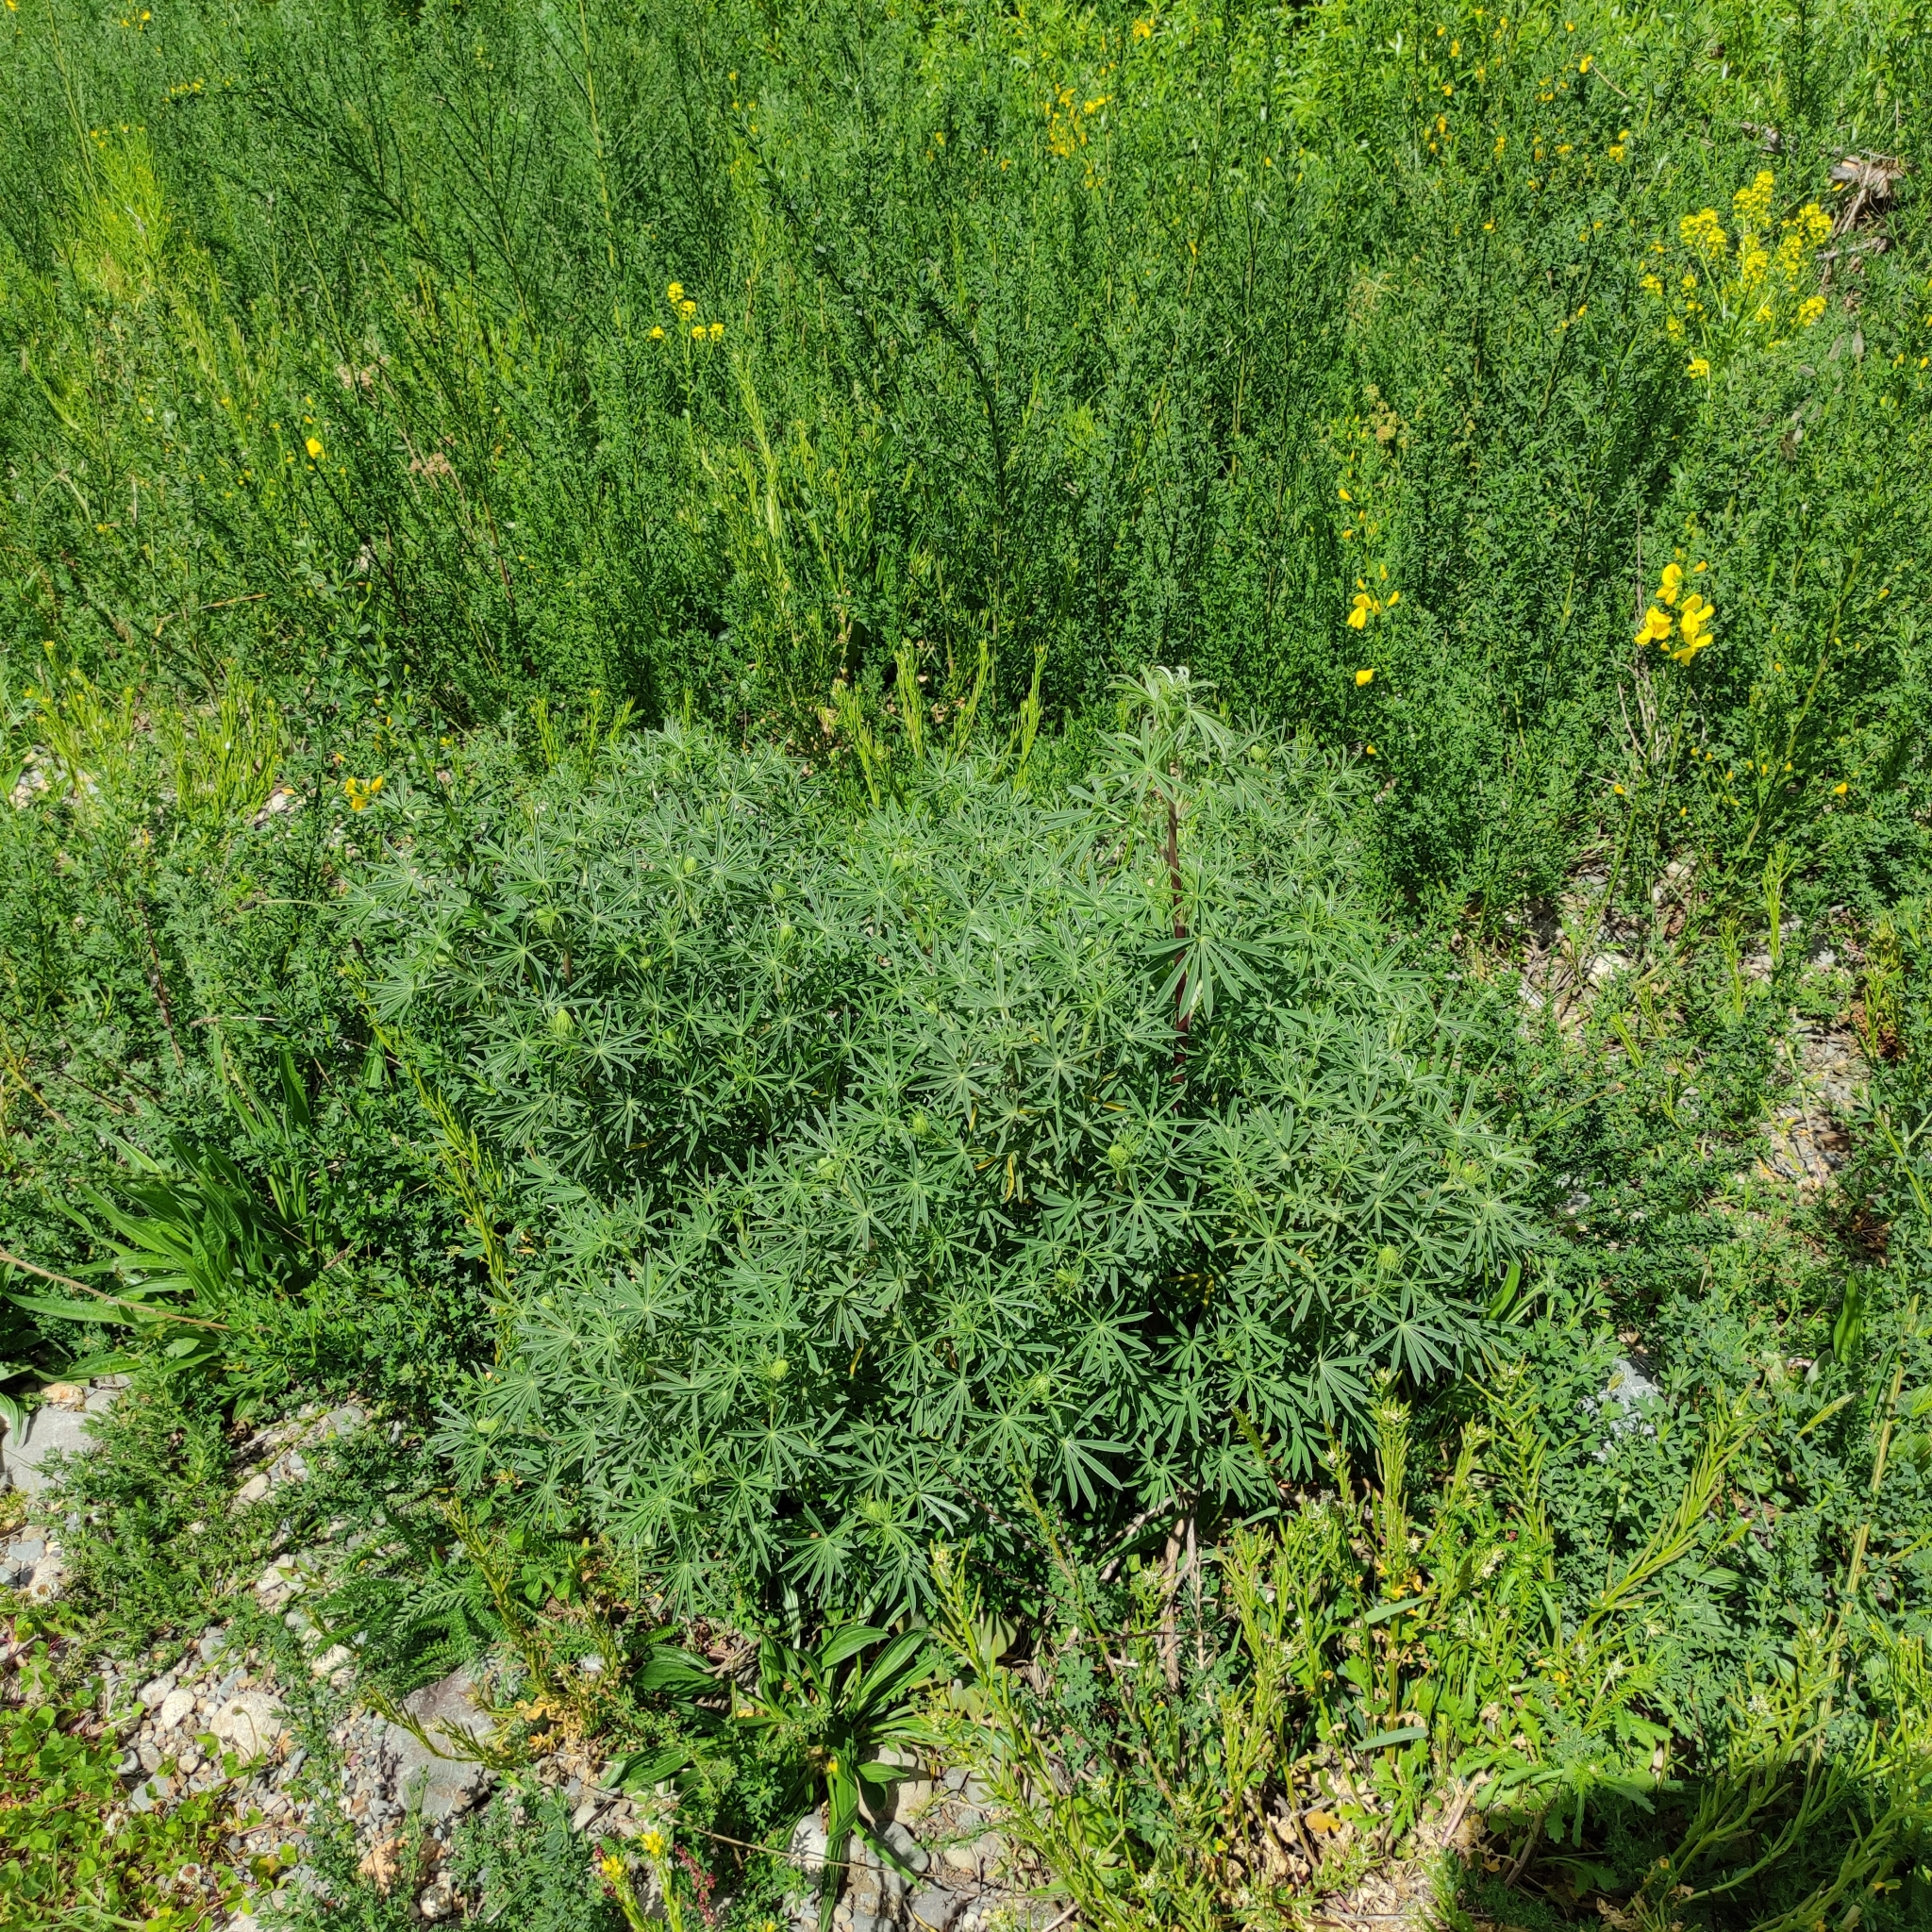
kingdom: Plantae
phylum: Tracheophyta
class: Magnoliopsida
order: Fabales
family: Fabaceae
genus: Lupinus
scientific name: Lupinus arboreus
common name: Yellow bush lupine
